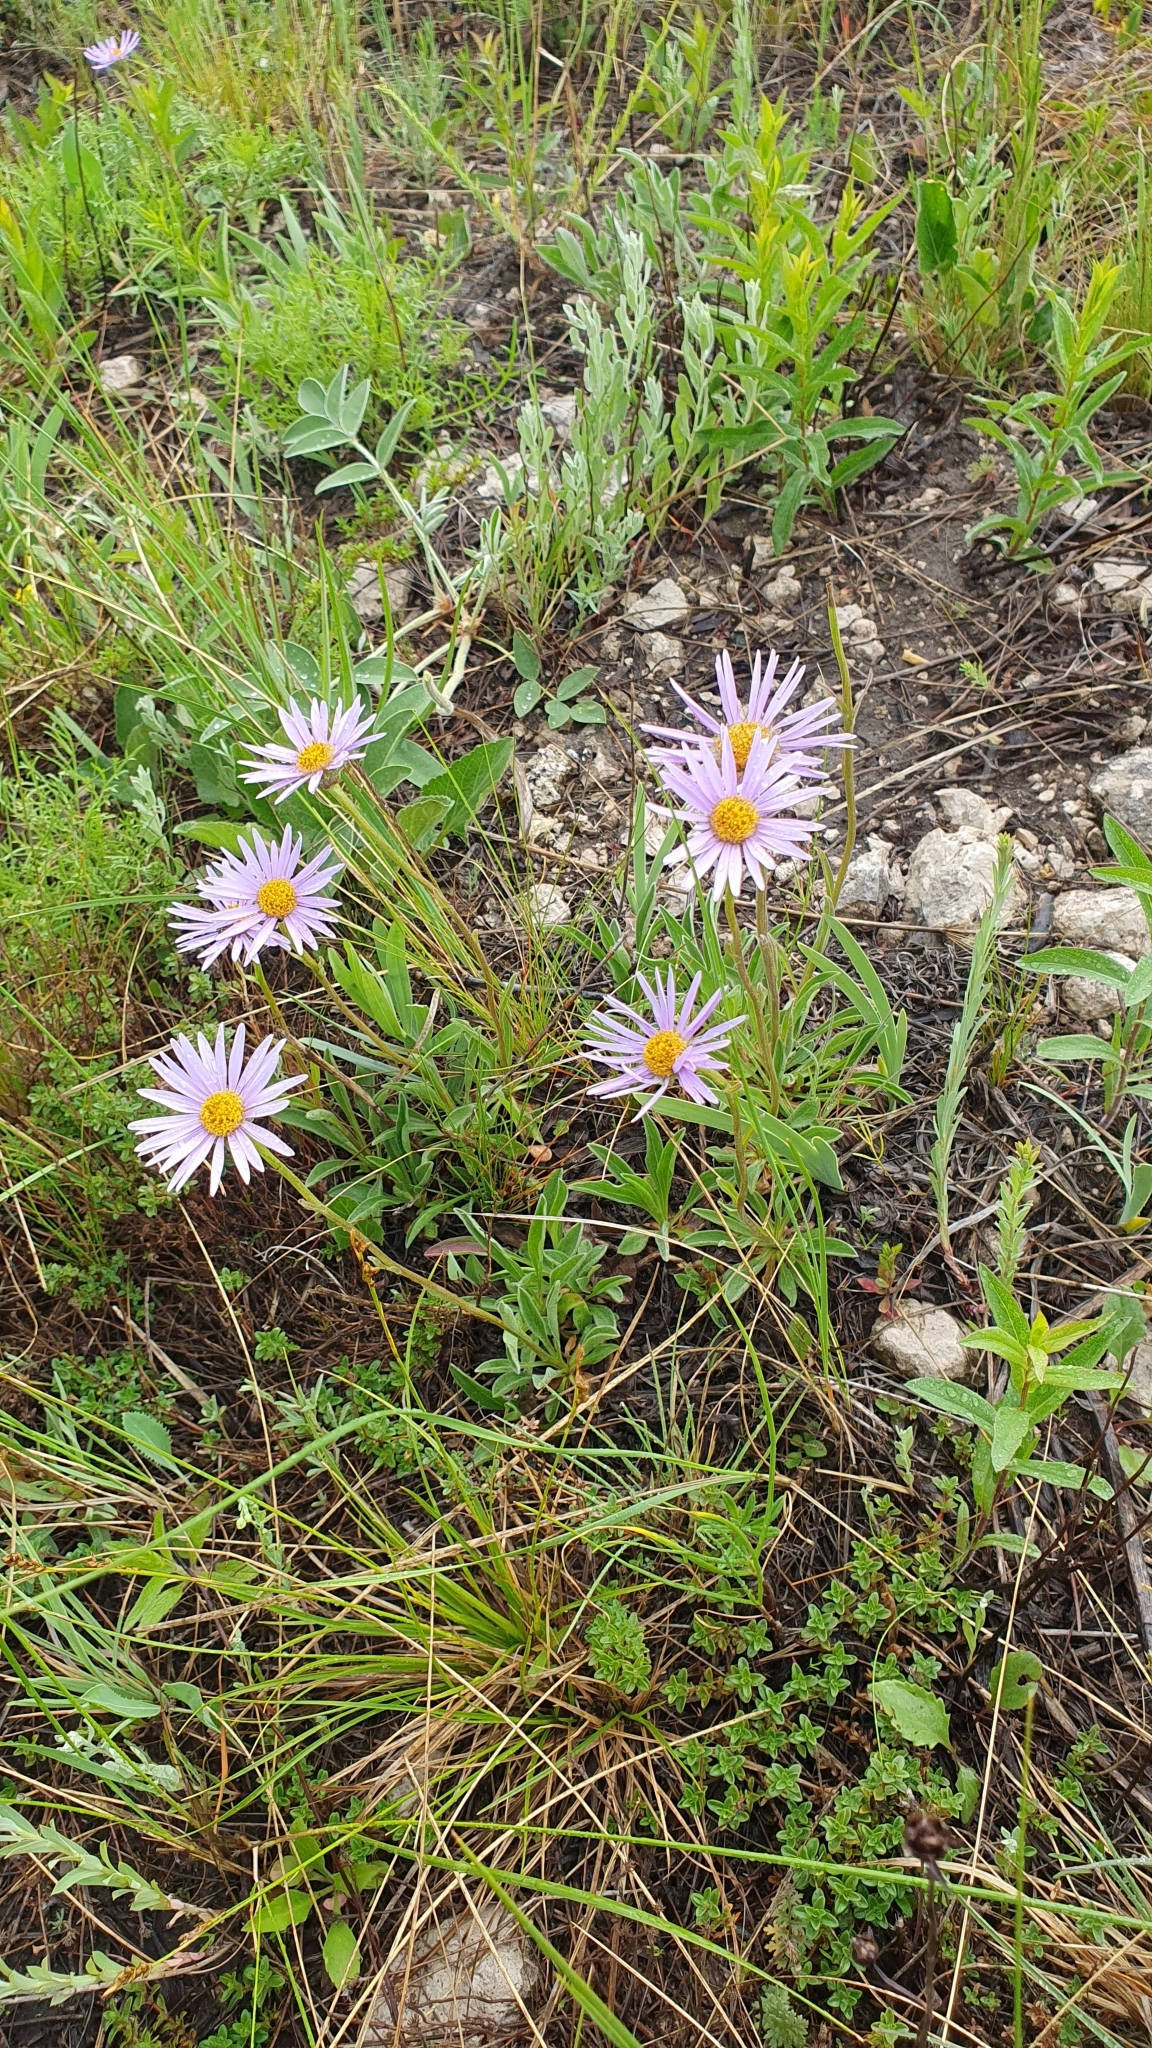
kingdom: Plantae
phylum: Tracheophyta
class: Magnoliopsida
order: Asterales
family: Asteraceae
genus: Aster
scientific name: Aster alpinus
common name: Alpine aster
